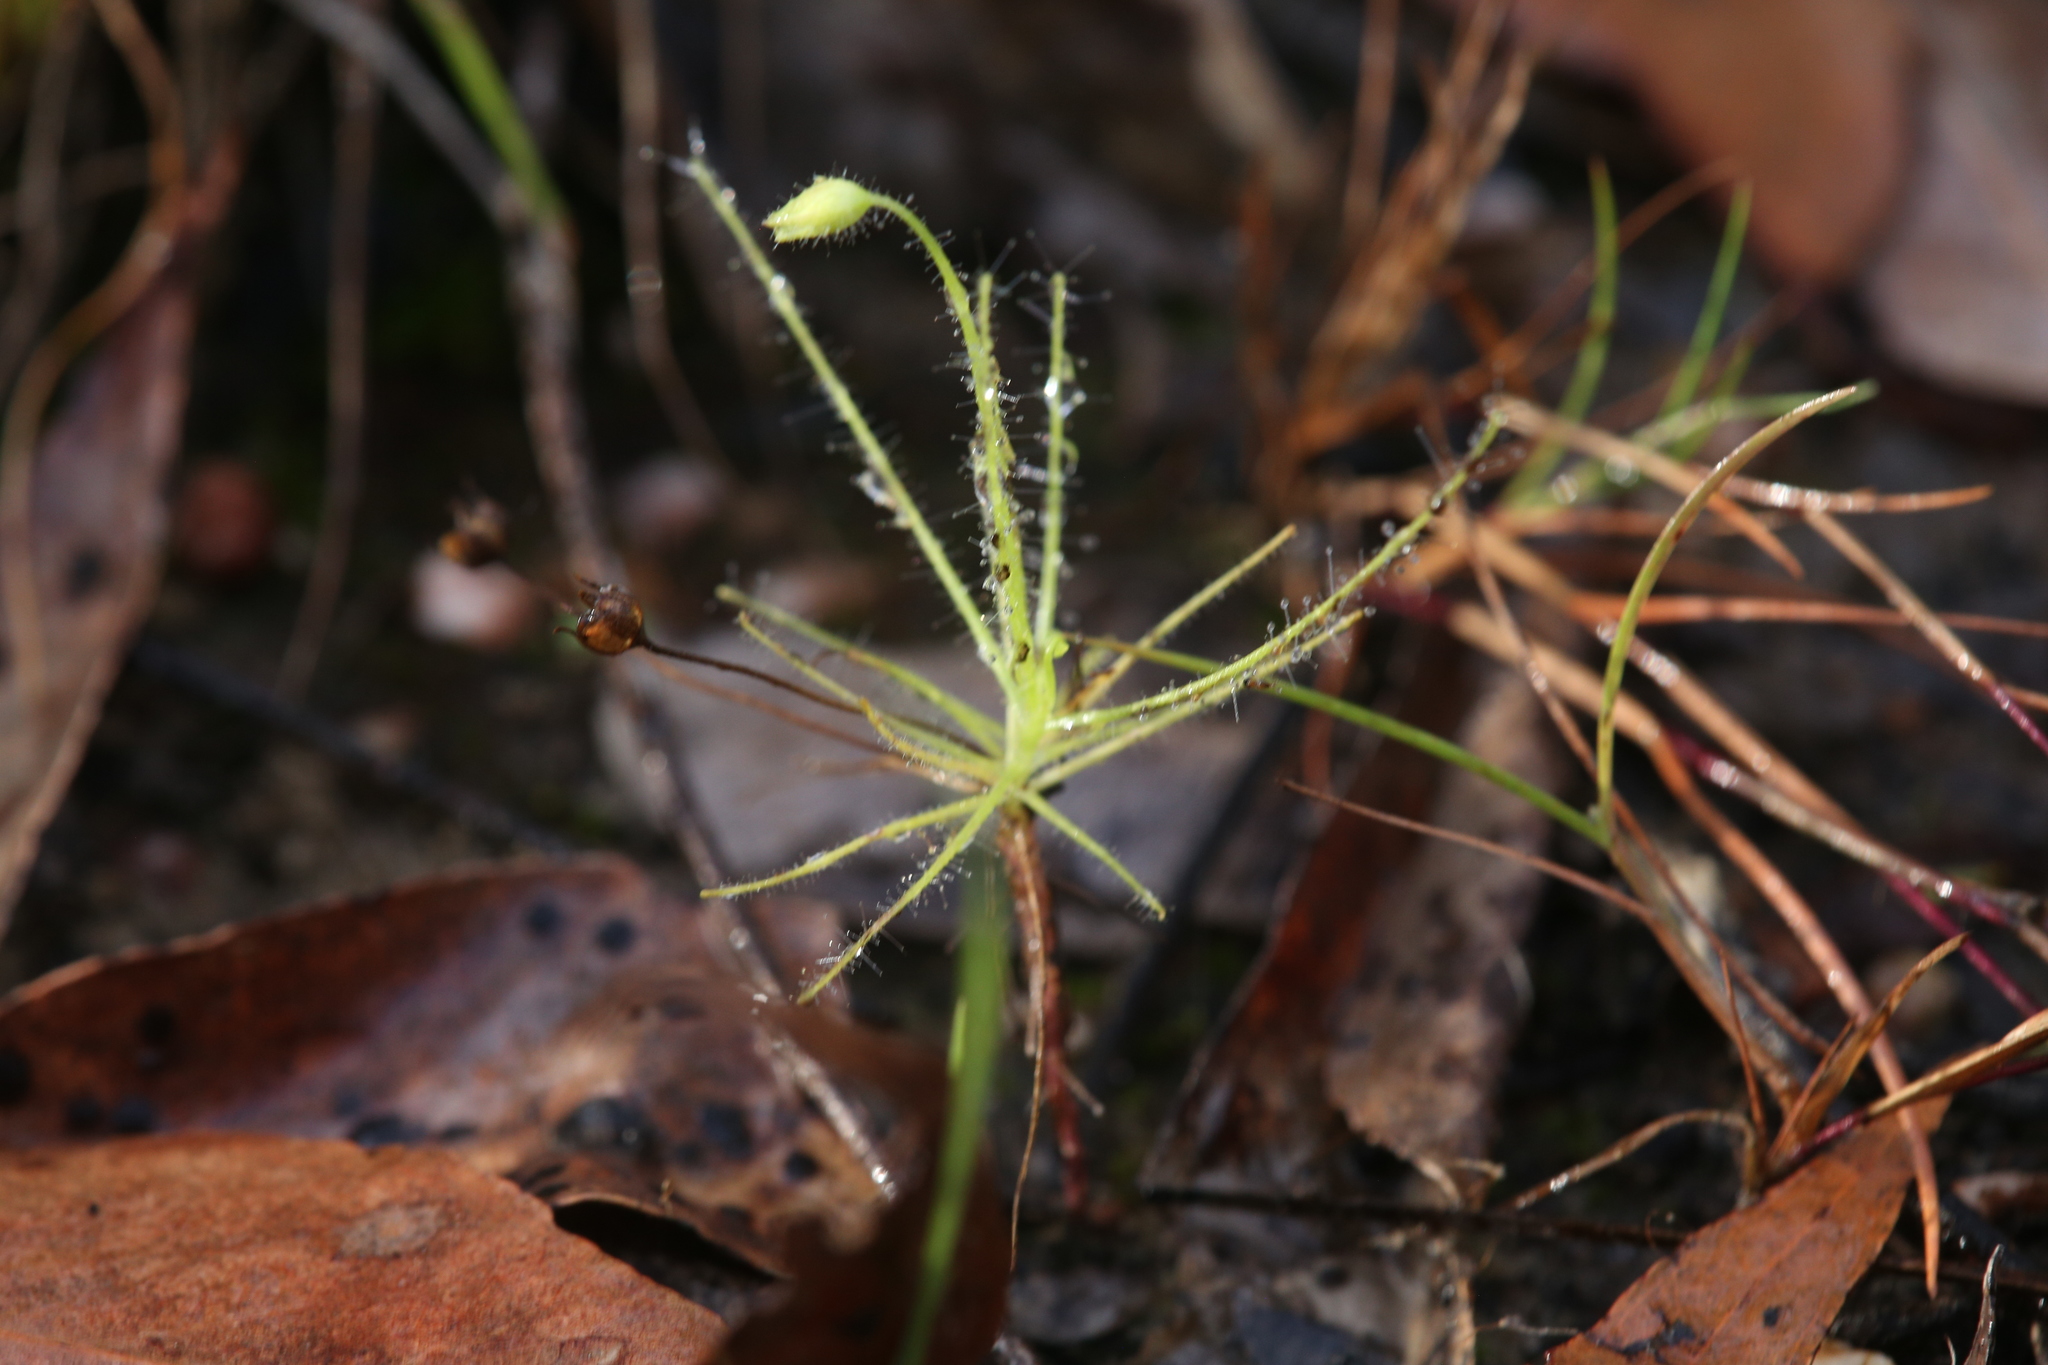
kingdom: Plantae
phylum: Tracheophyta
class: Magnoliopsida
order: Lamiales
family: Byblidaceae
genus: Byblis
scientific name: Byblis liniflora
